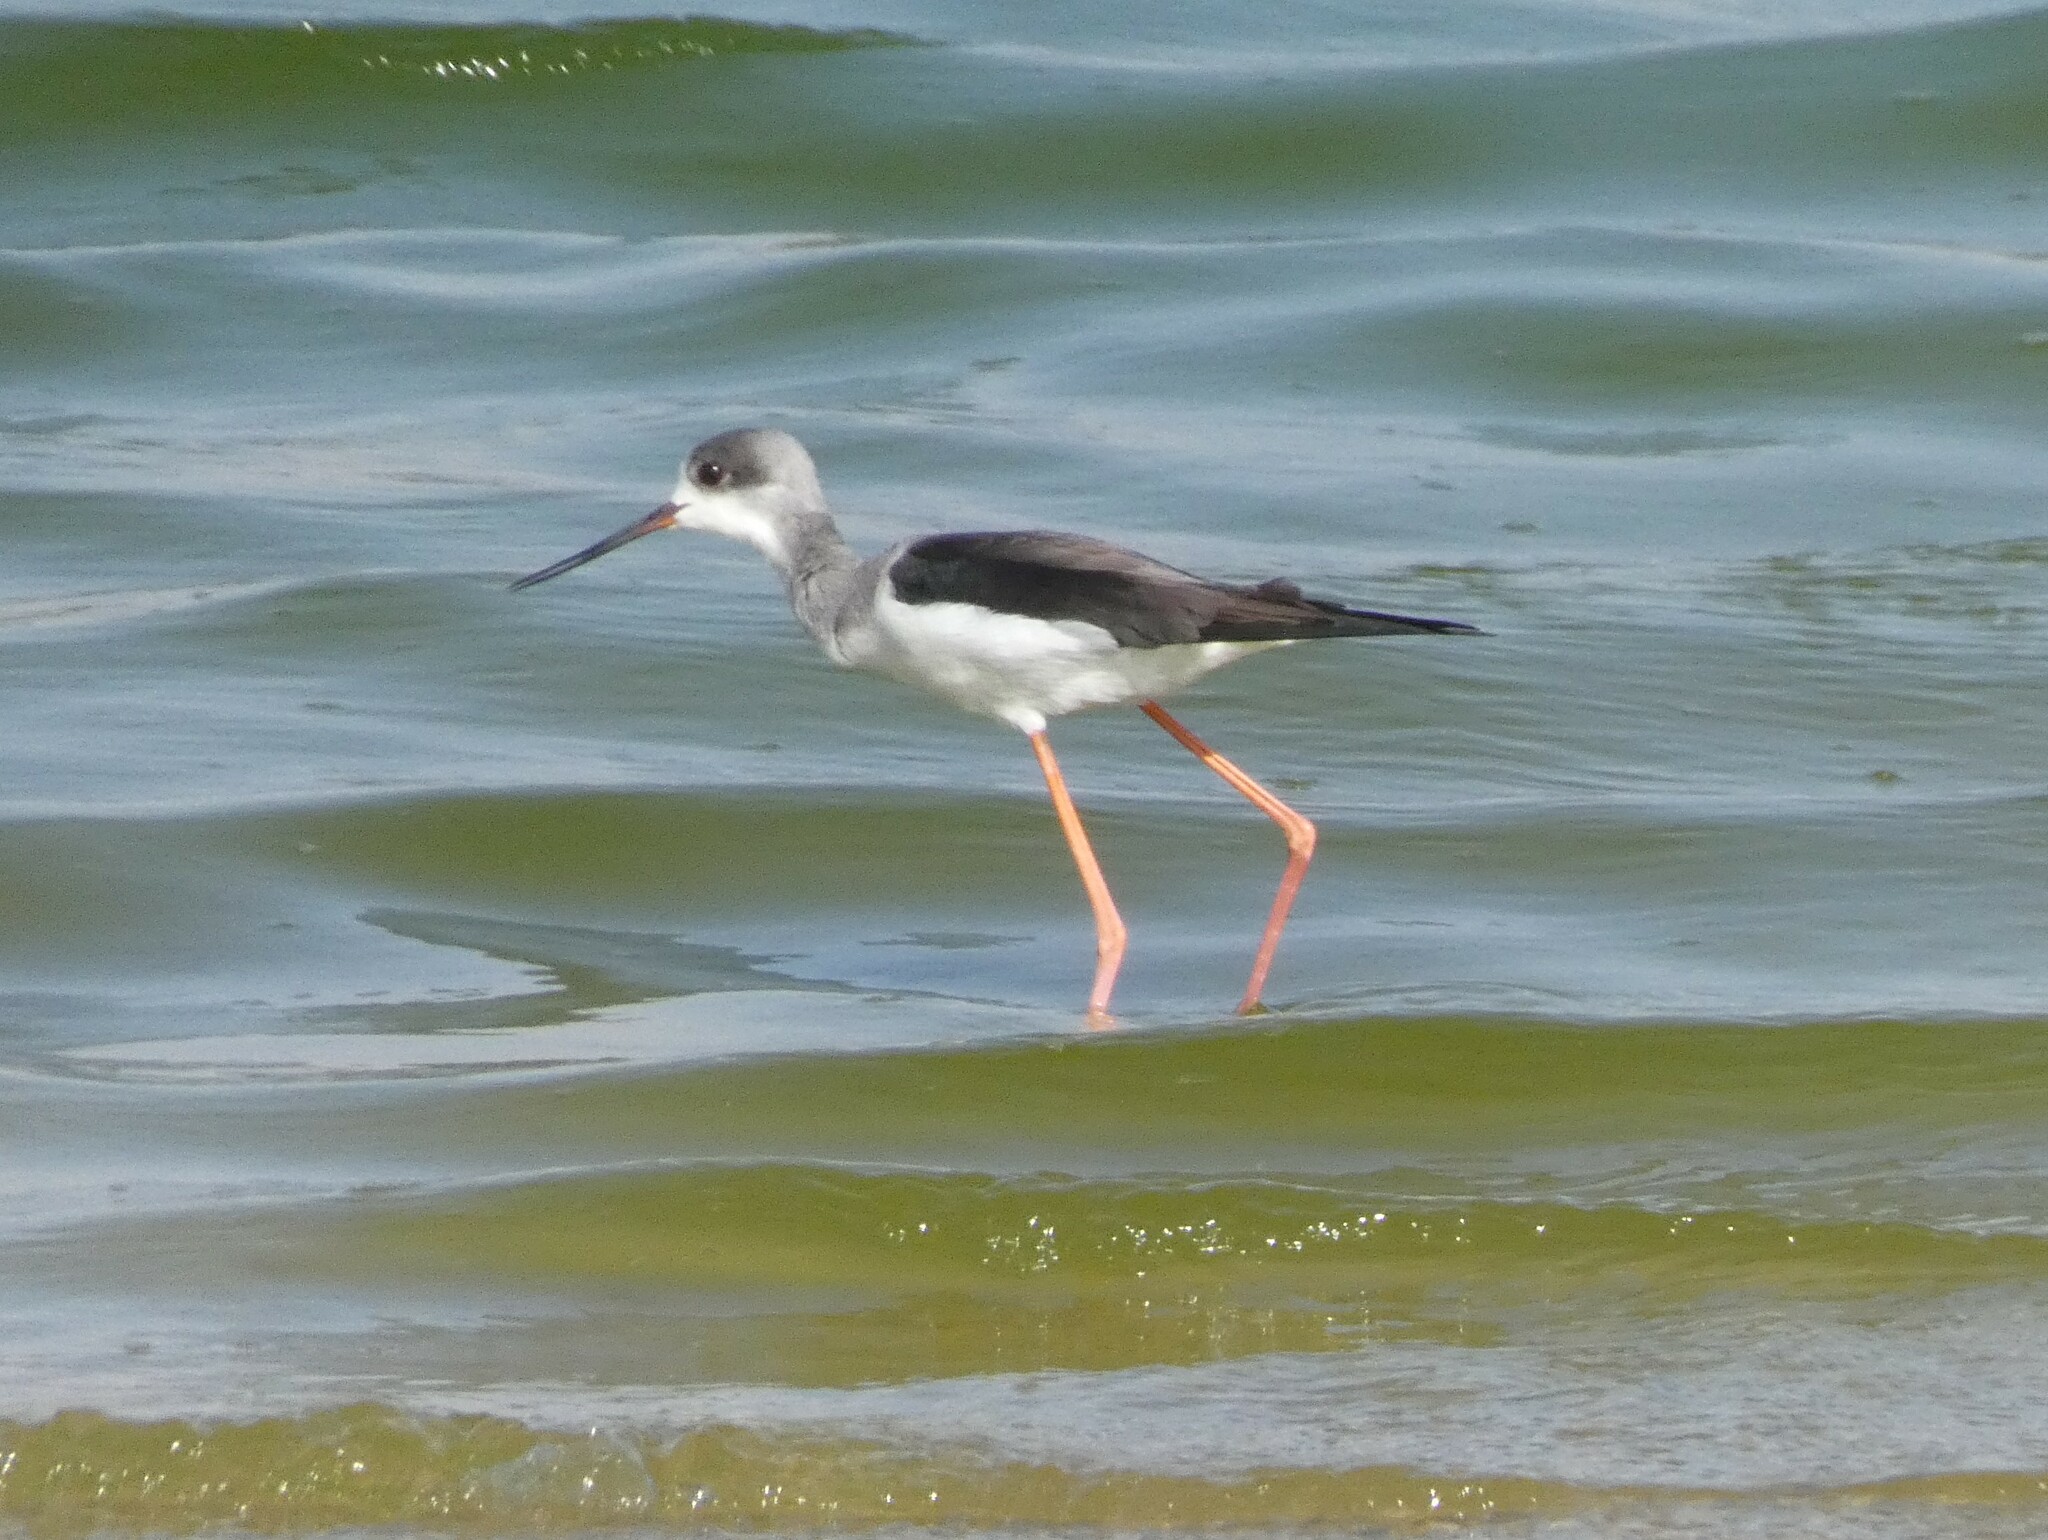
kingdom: Animalia
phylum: Chordata
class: Aves
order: Charadriiformes
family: Recurvirostridae
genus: Himantopus
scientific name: Himantopus himantopus
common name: Black-winged stilt
